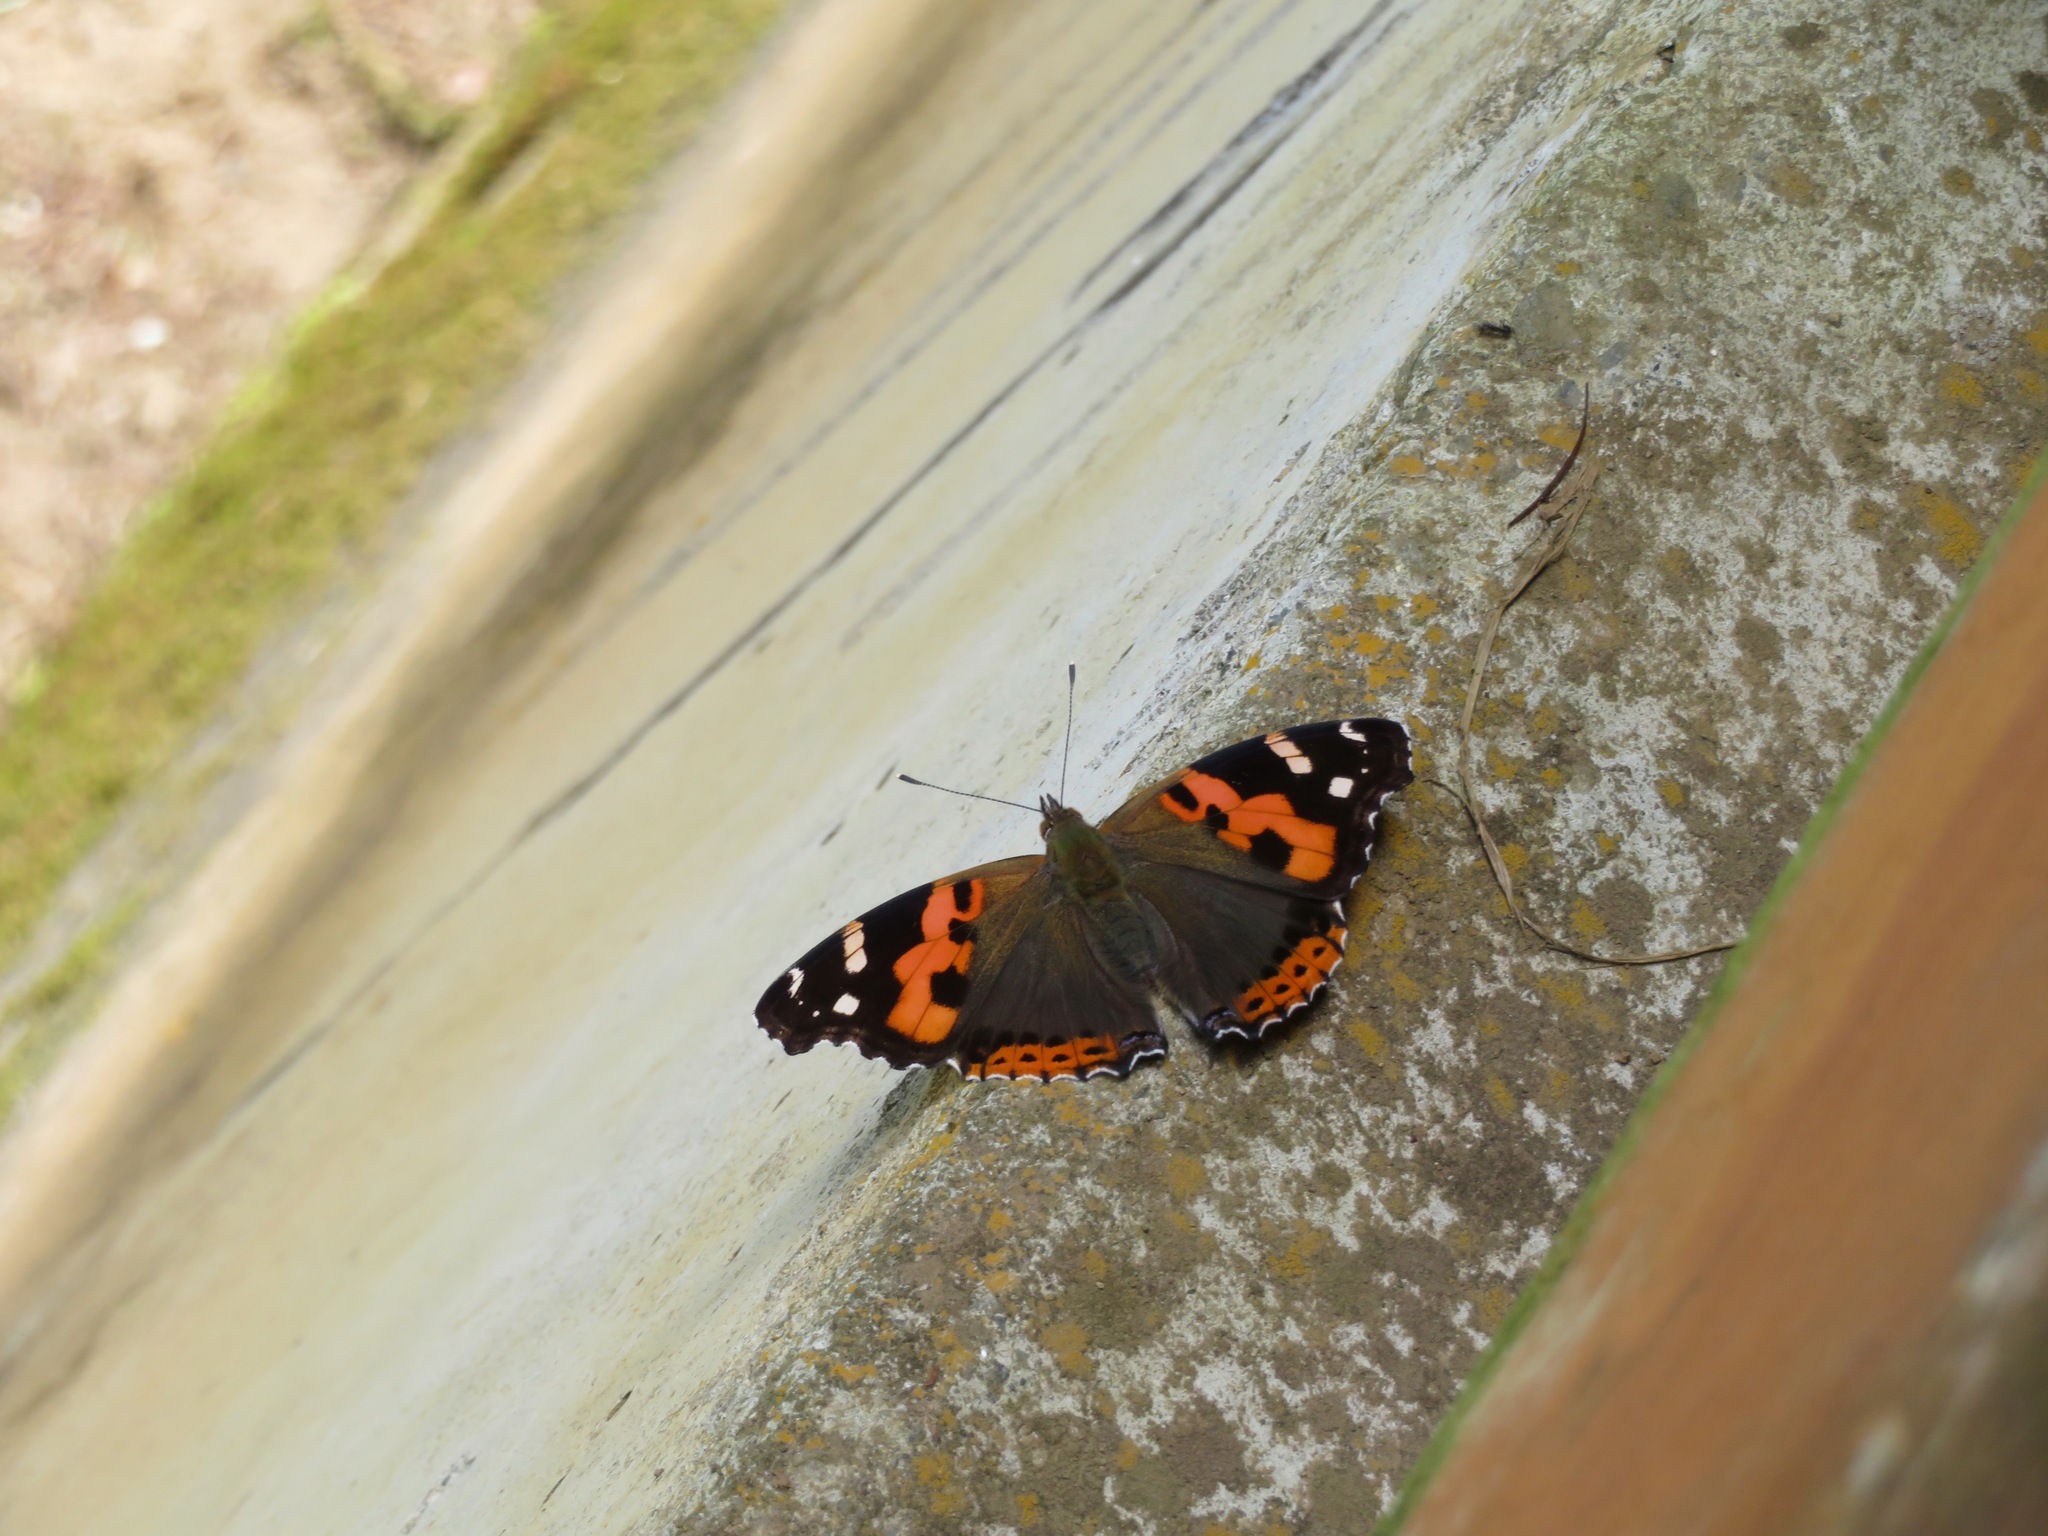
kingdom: Animalia
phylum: Arthropoda
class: Insecta
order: Lepidoptera
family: Nymphalidae
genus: Vanessa
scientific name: Vanessa indica
